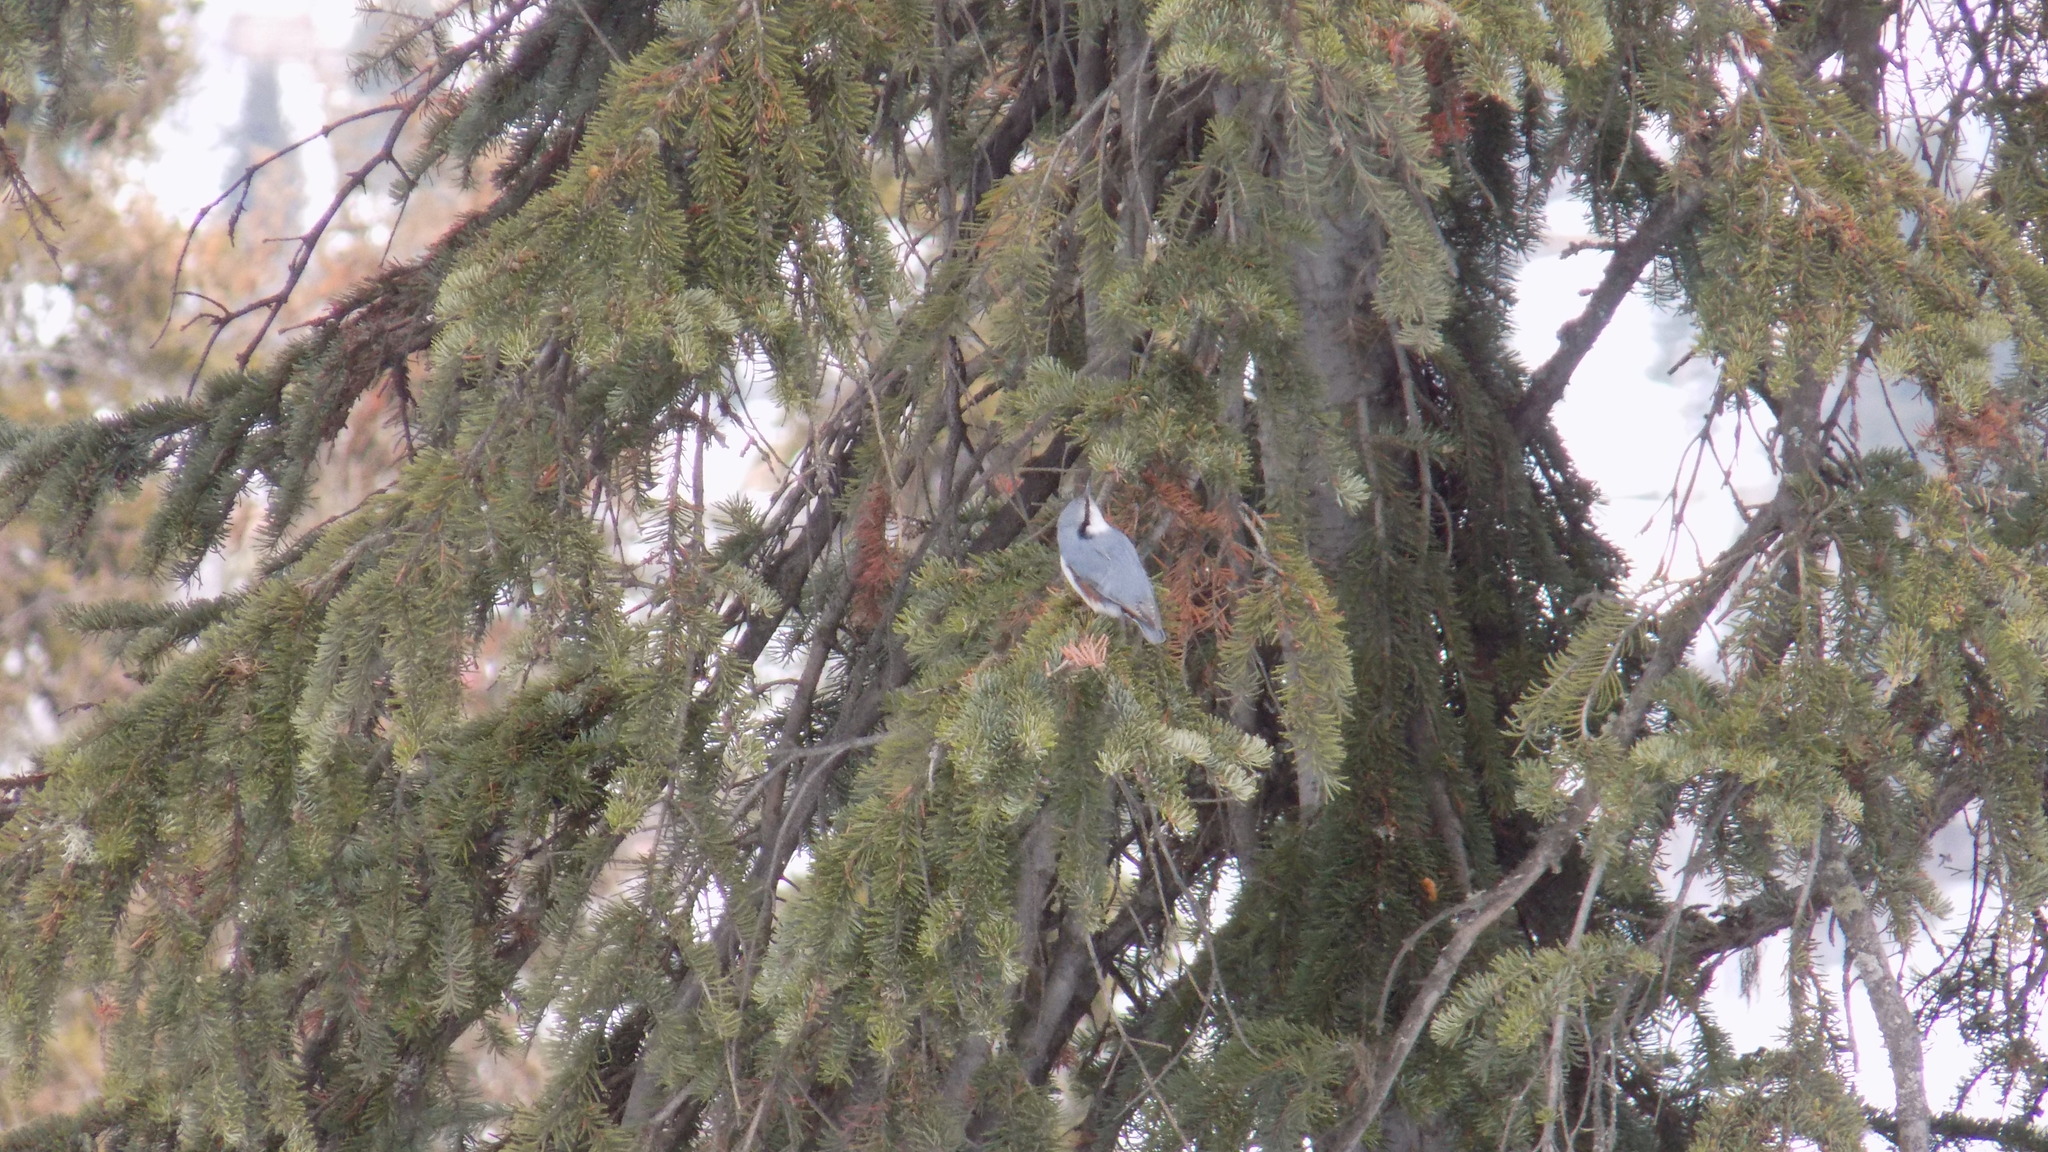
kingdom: Animalia
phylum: Chordata
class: Aves
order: Passeriformes
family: Sittidae
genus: Sitta
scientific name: Sitta europaea
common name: Eurasian nuthatch
